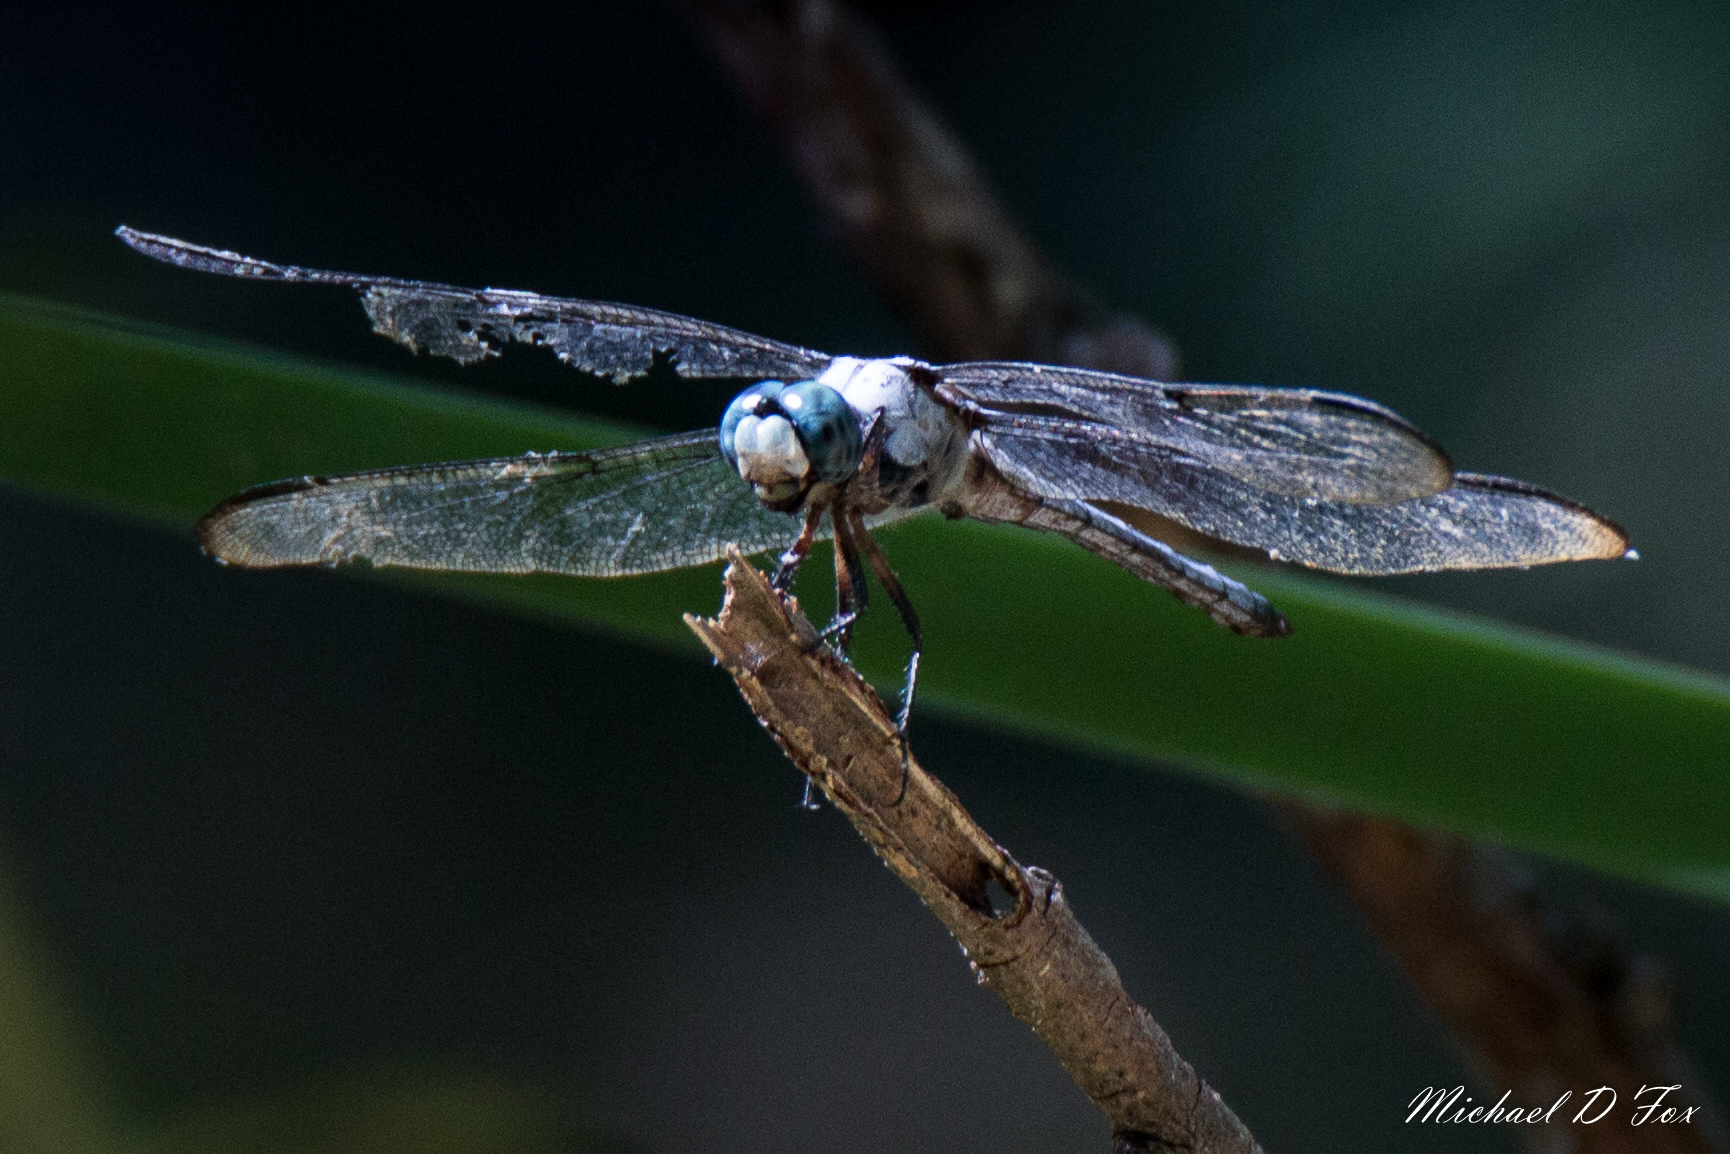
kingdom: Animalia
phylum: Arthropoda
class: Insecta
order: Odonata
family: Libellulidae
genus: Libellula
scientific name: Libellula vibrans
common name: Great blue skimmer
